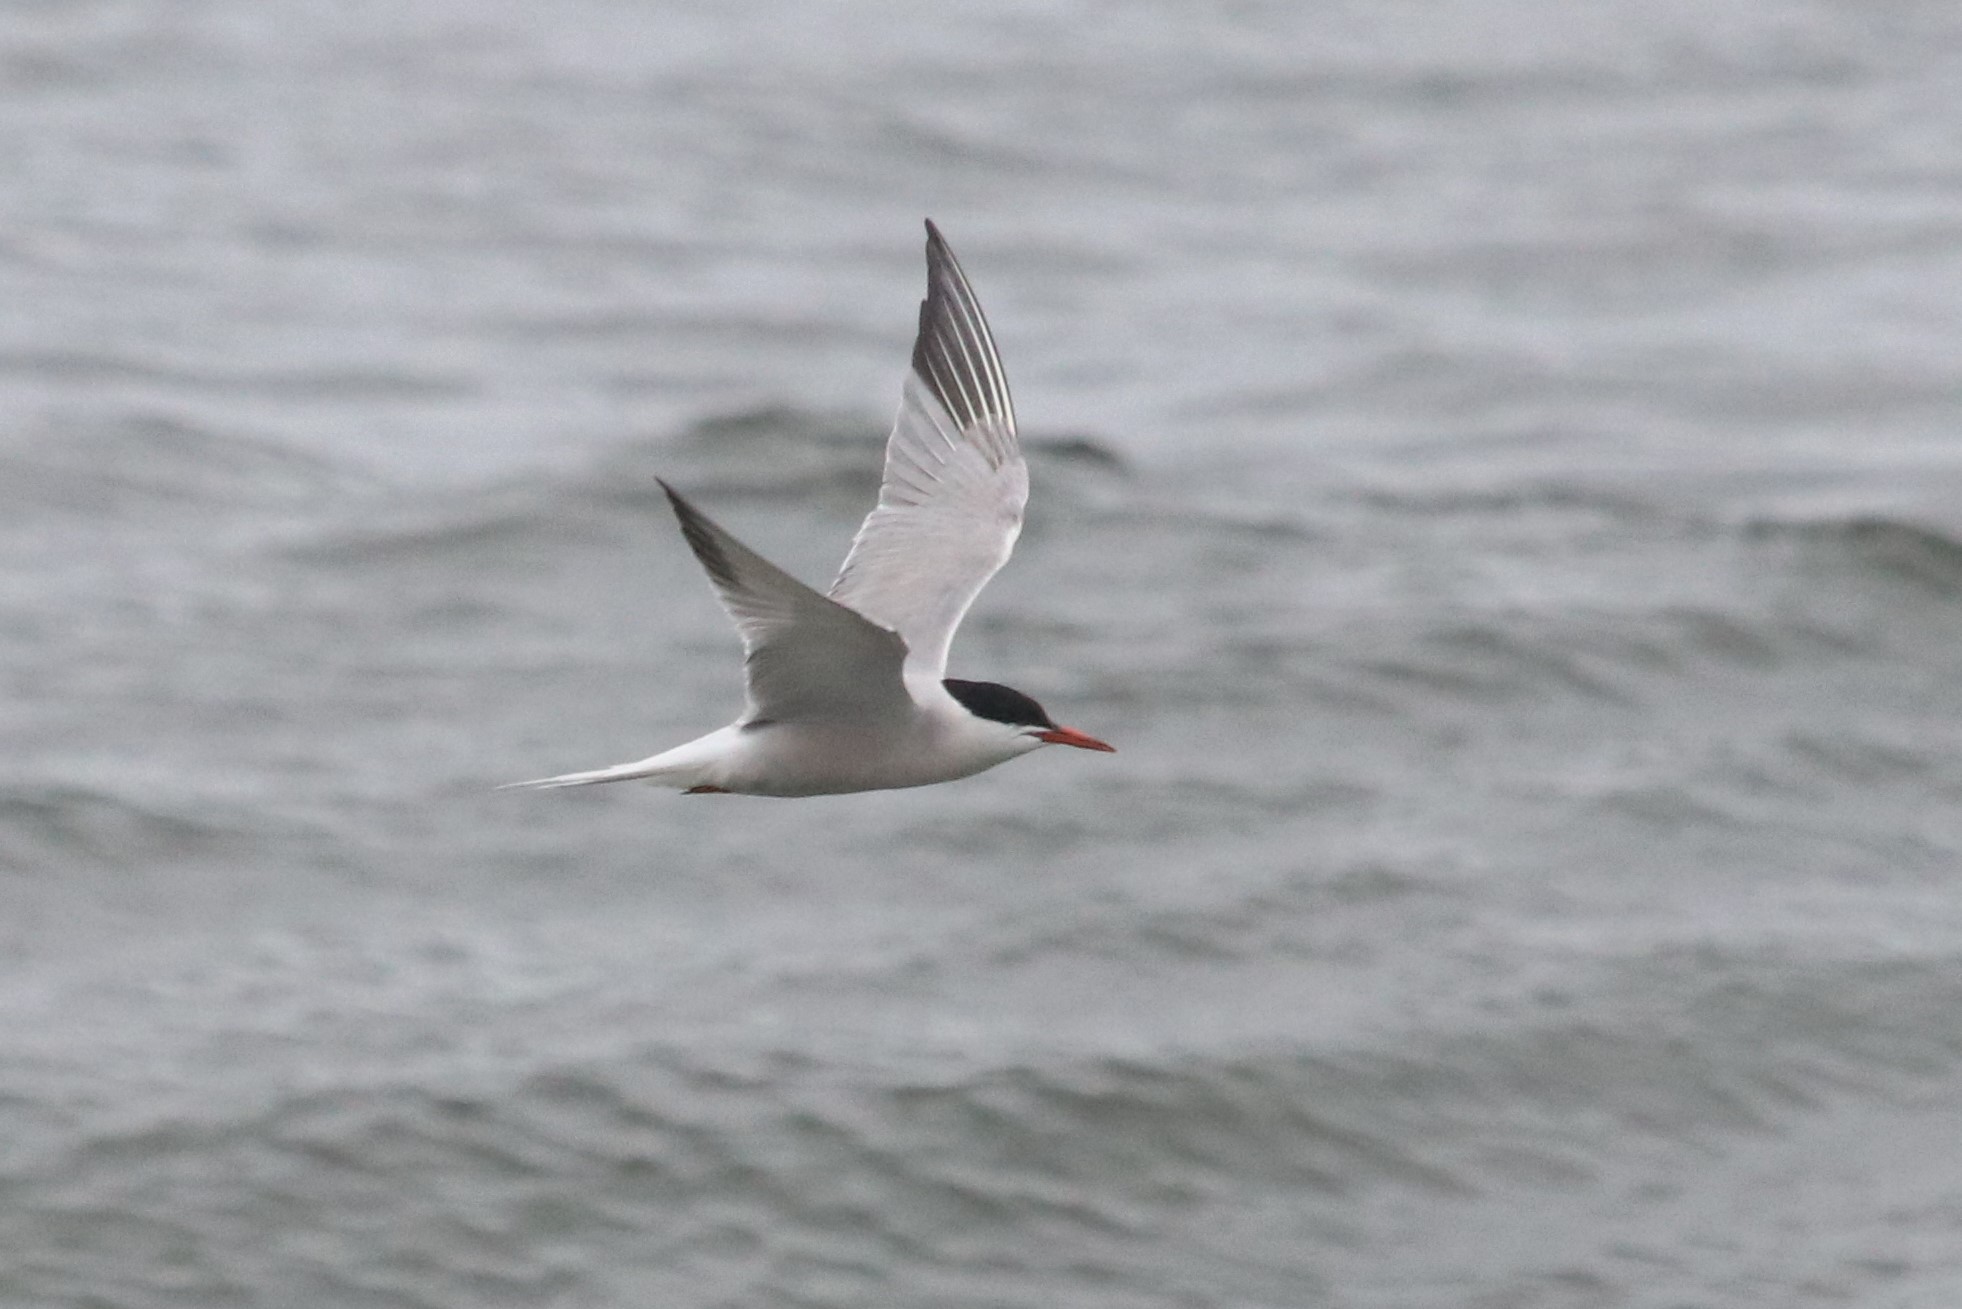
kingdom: Animalia
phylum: Chordata
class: Aves
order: Charadriiformes
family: Laridae
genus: Sterna
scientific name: Sterna hirundo
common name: Common tern
